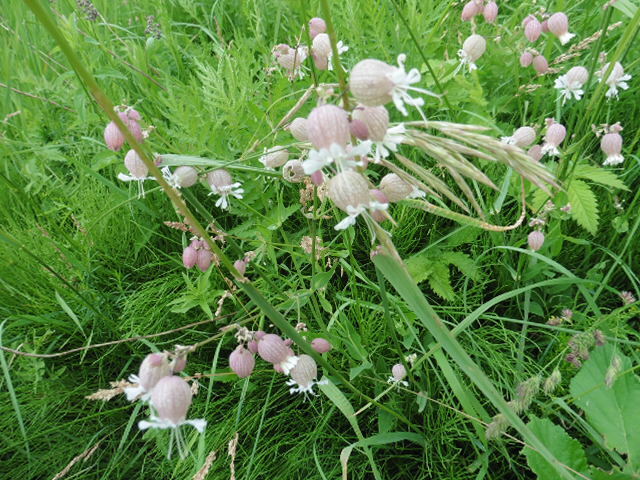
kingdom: Plantae
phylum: Tracheophyta
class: Magnoliopsida
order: Caryophyllales
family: Caryophyllaceae
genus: Silene
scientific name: Silene vulgaris
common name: Bladder campion
